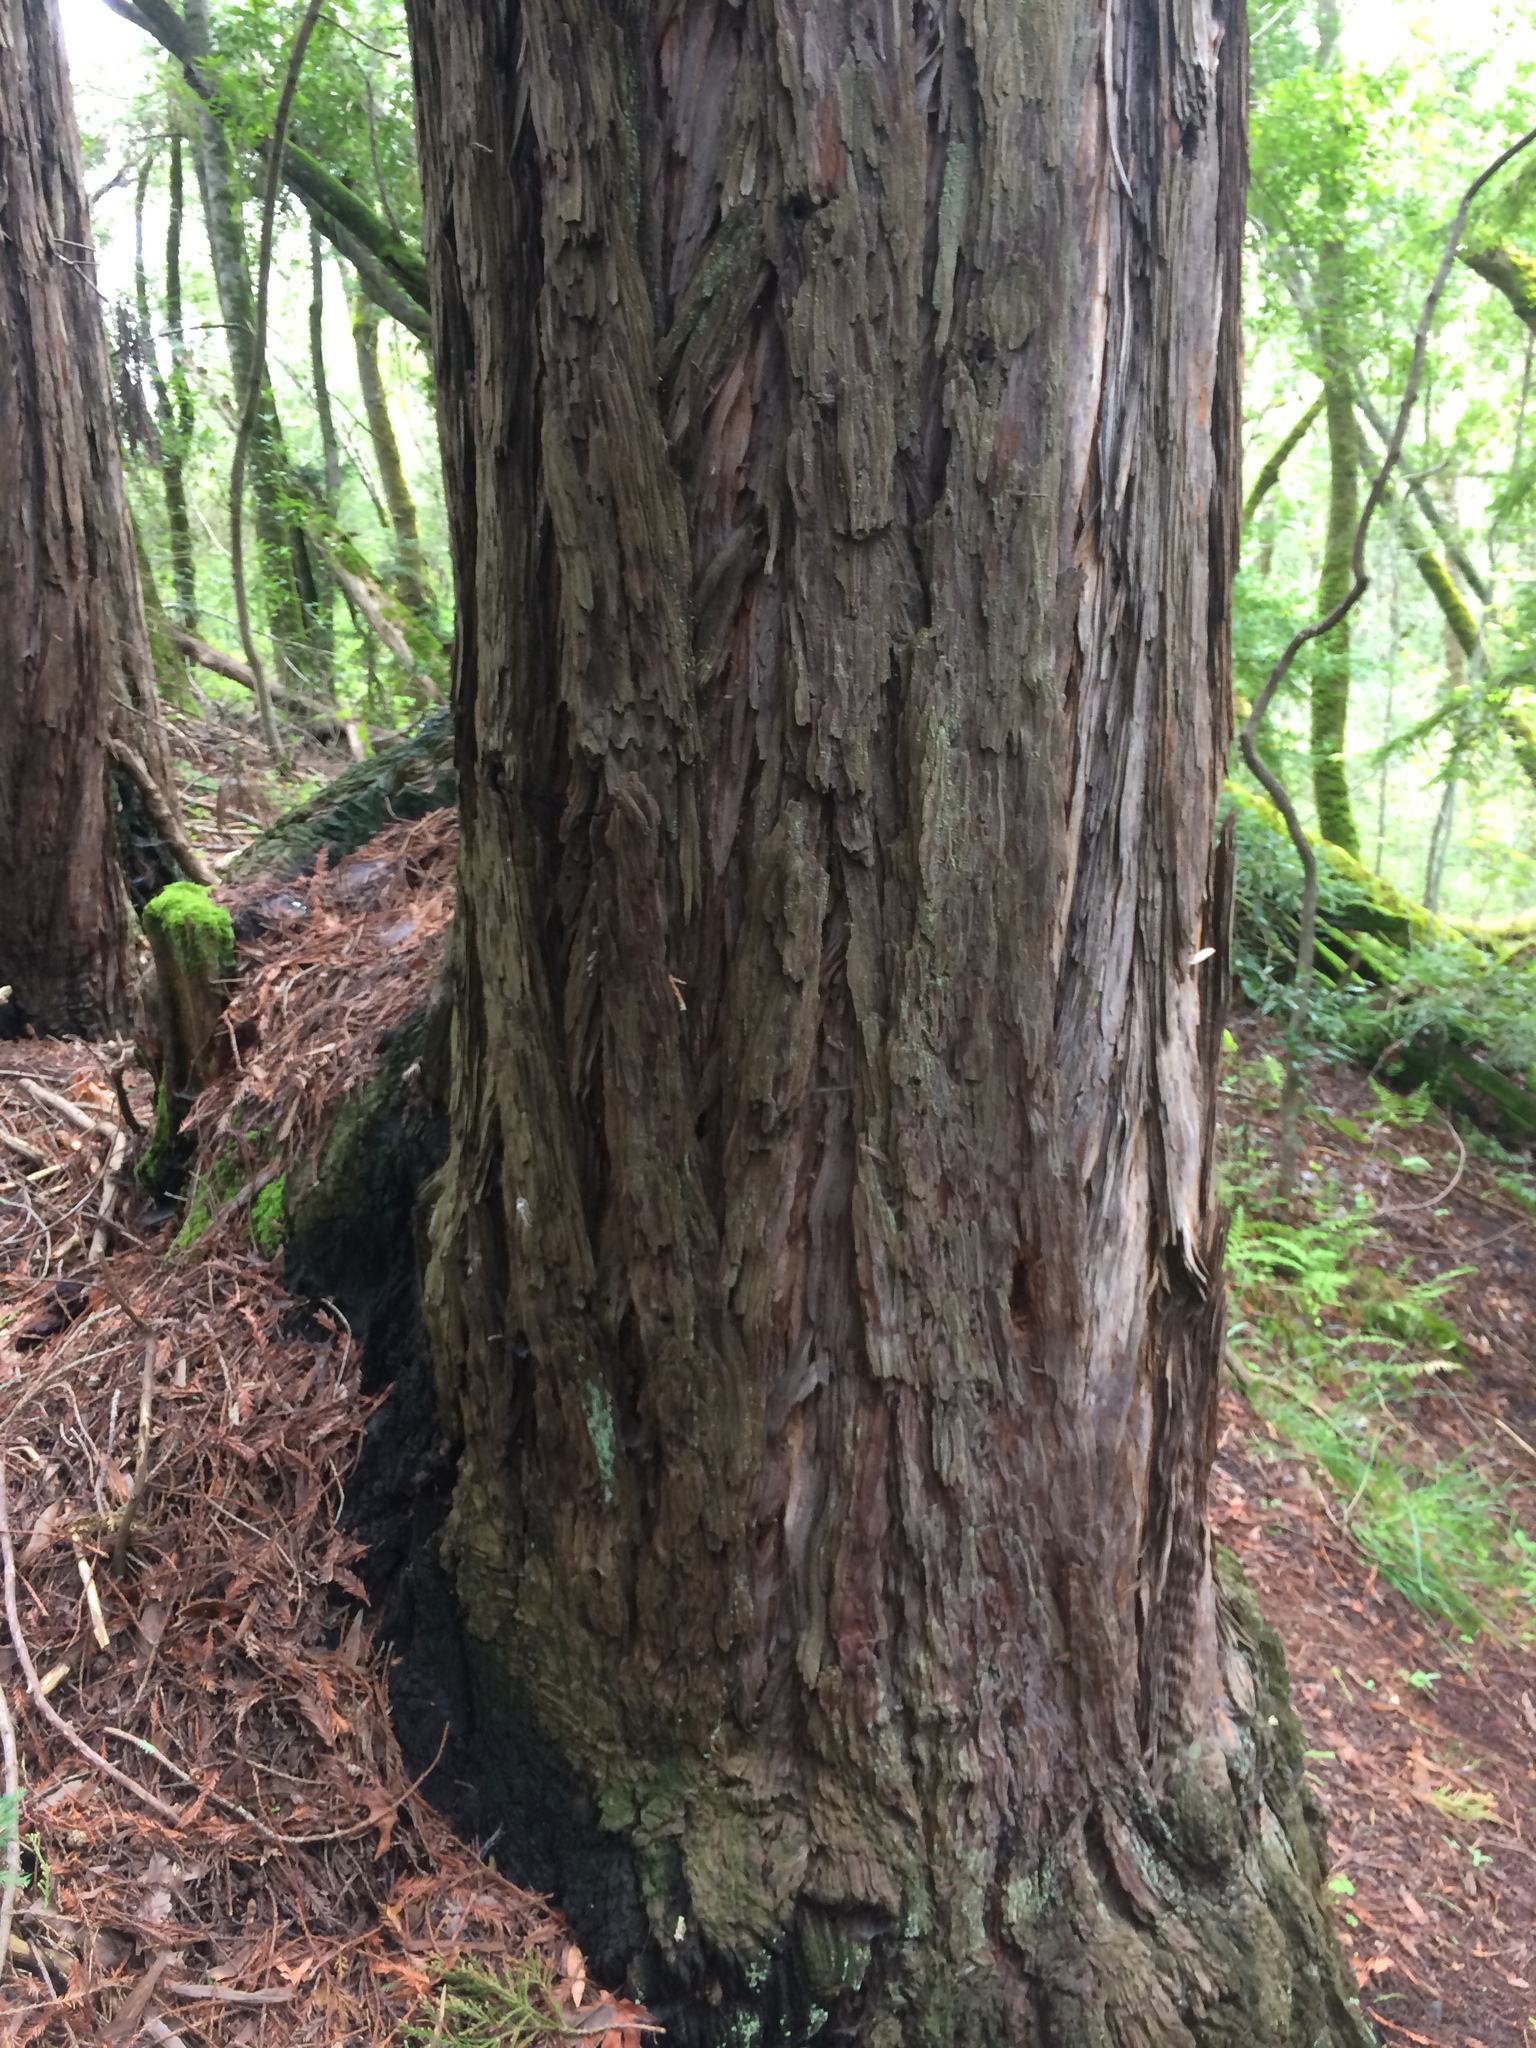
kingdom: Plantae
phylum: Tracheophyta
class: Pinopsida
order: Pinales
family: Cupressaceae
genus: Sequoia
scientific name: Sequoia sempervirens
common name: Coast redwood
